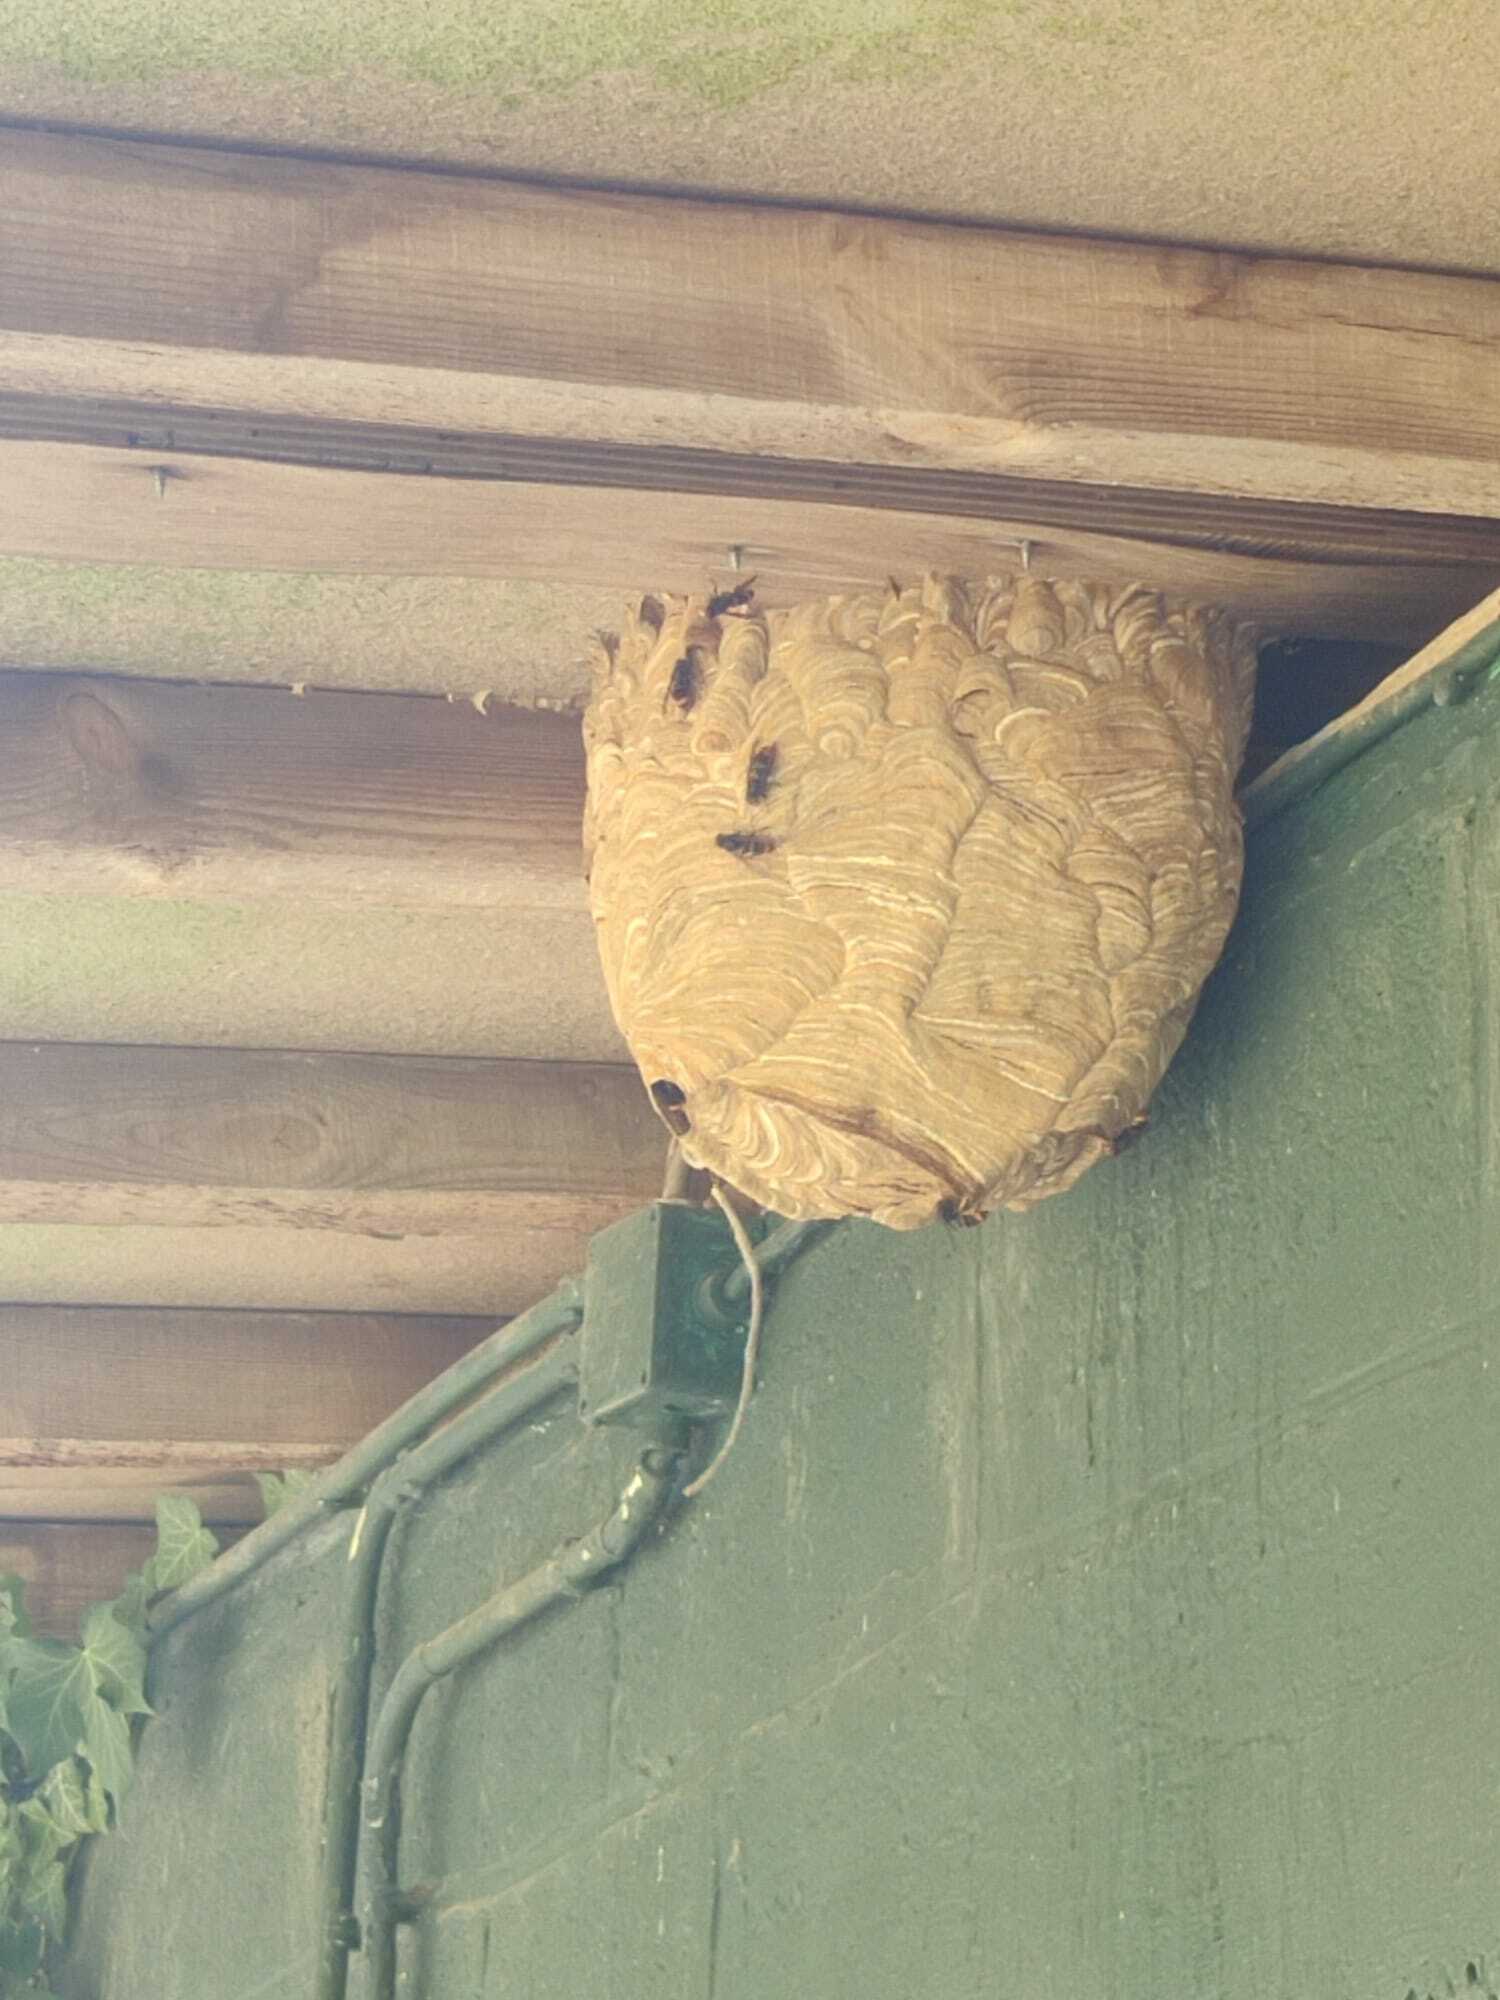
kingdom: Animalia
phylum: Arthropoda
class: Insecta
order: Hymenoptera
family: Vespidae
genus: Vespa
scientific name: Vespa velutina
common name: Asian hornet
